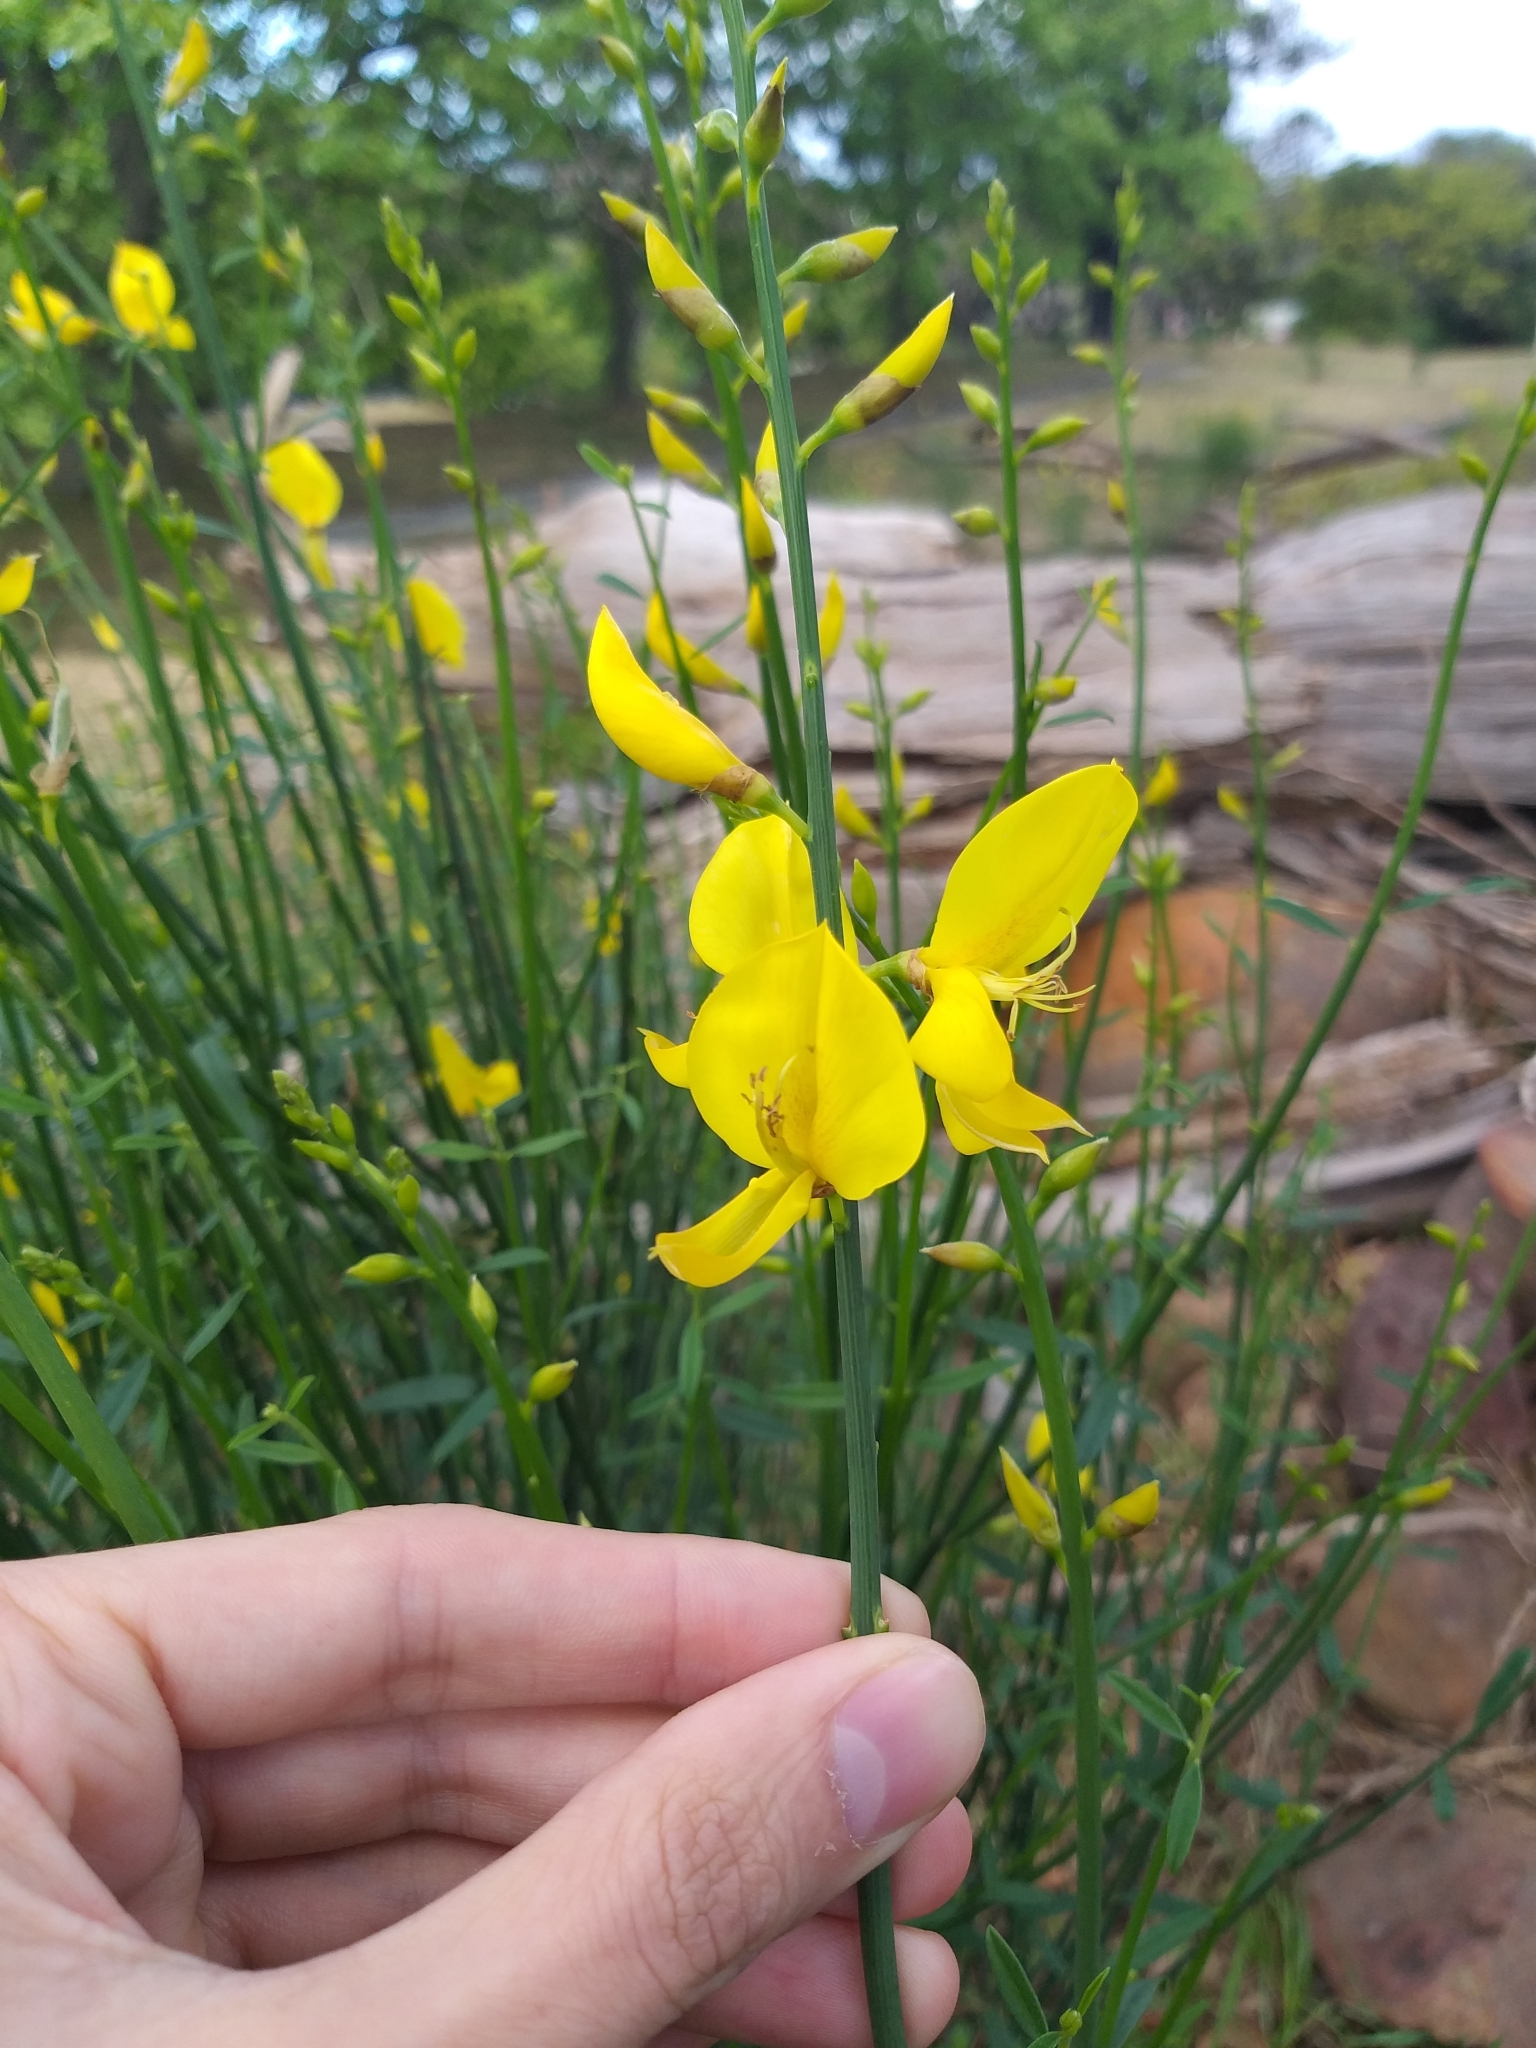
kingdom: Plantae
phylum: Tracheophyta
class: Magnoliopsida
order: Fabales
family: Fabaceae
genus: Spartium
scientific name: Spartium junceum
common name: Spanish broom
